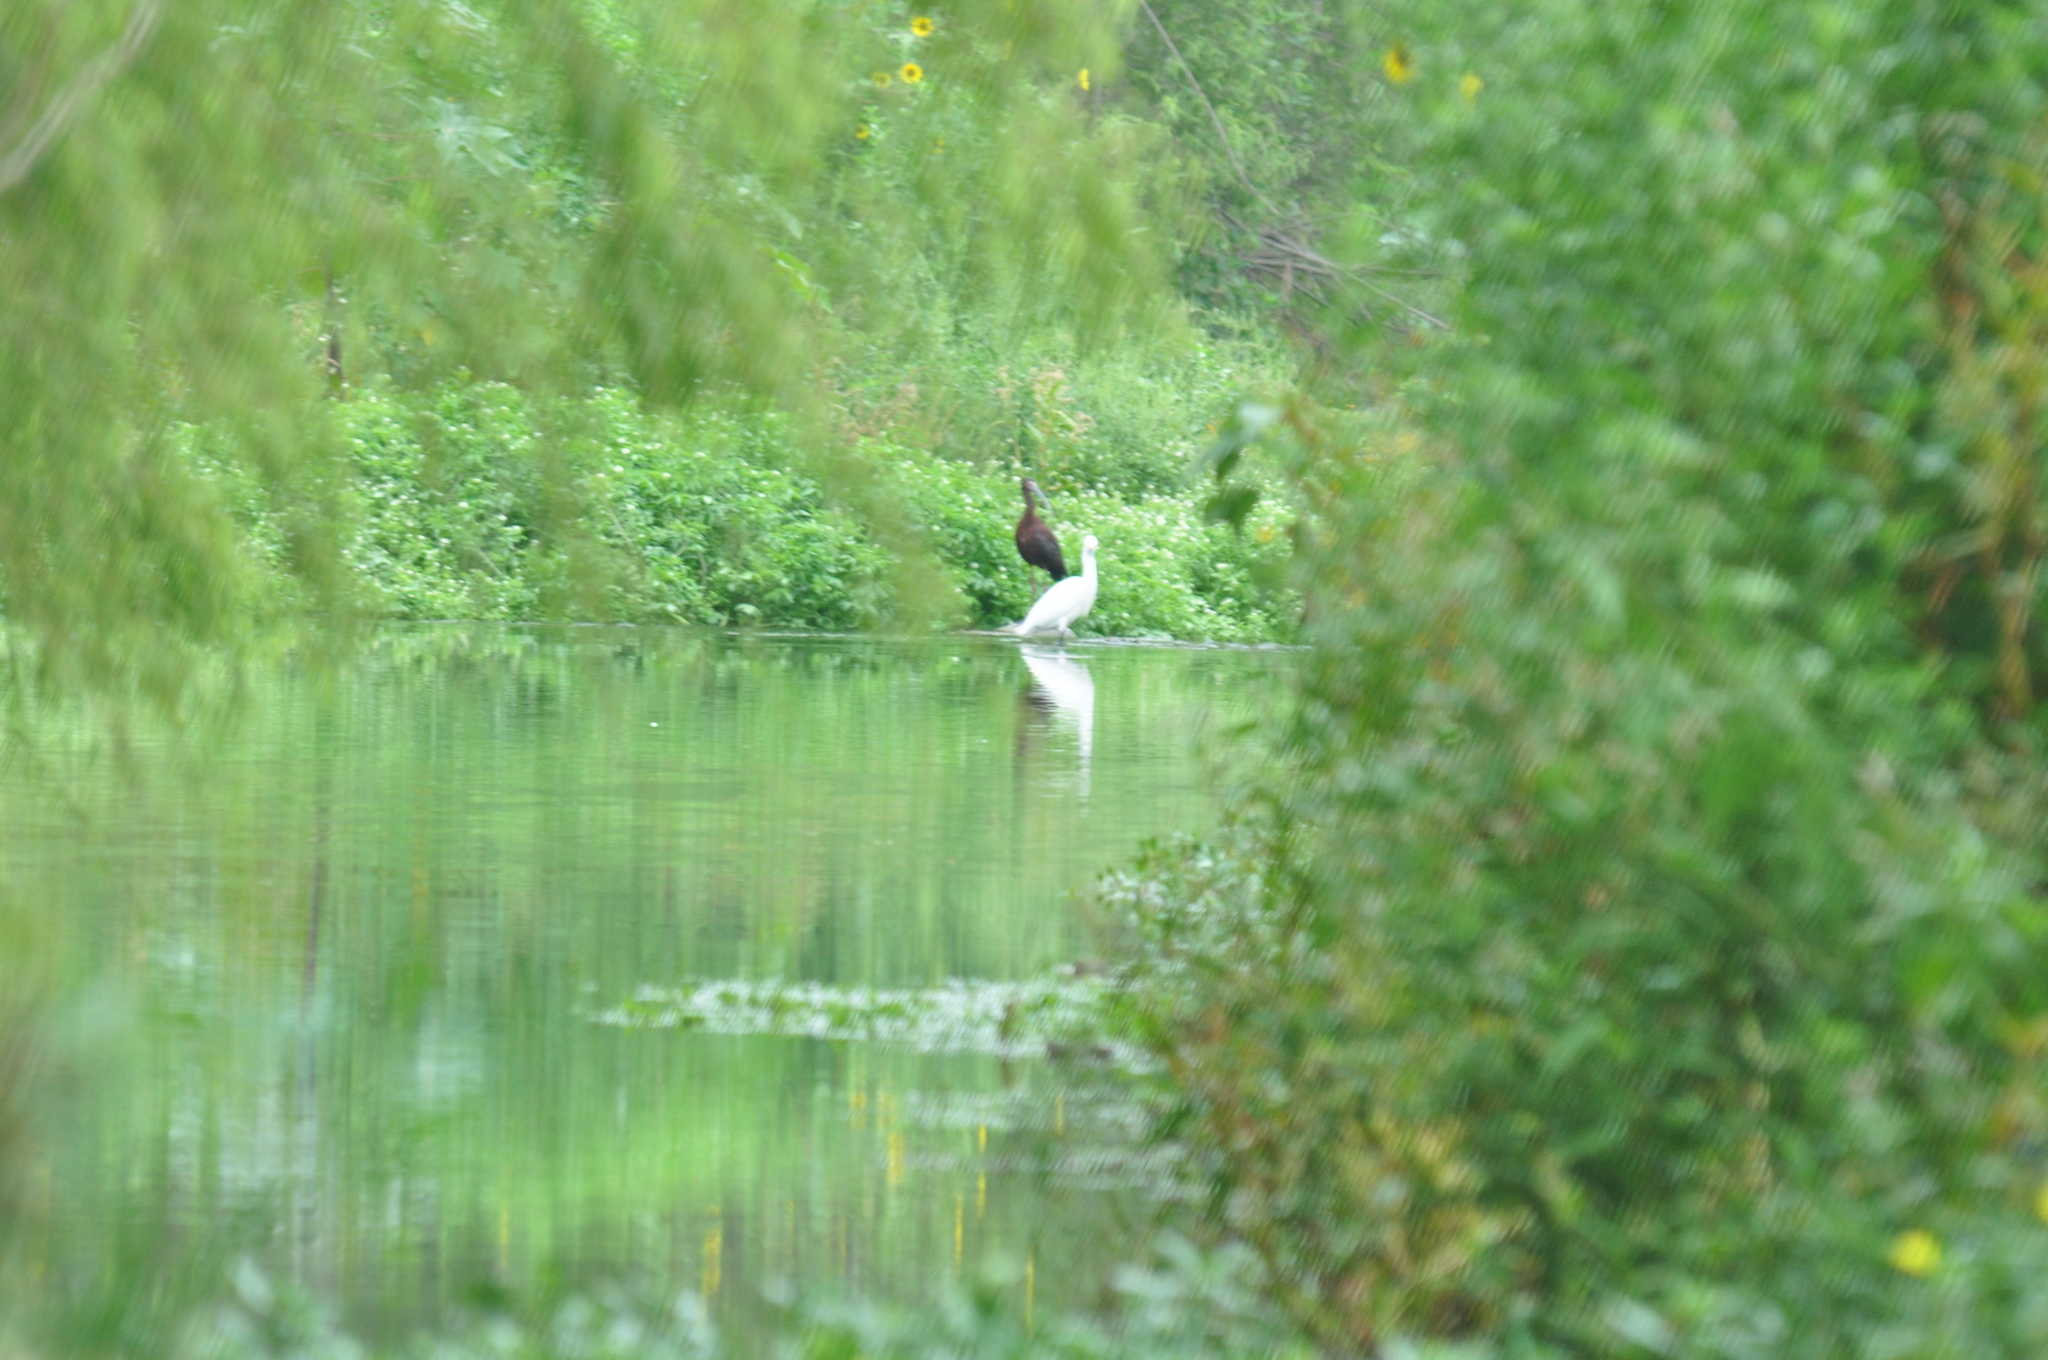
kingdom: Animalia
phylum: Chordata
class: Aves
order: Pelecaniformes
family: Threskiornithidae
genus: Plegadis
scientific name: Plegadis chihi
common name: White-faced ibis
